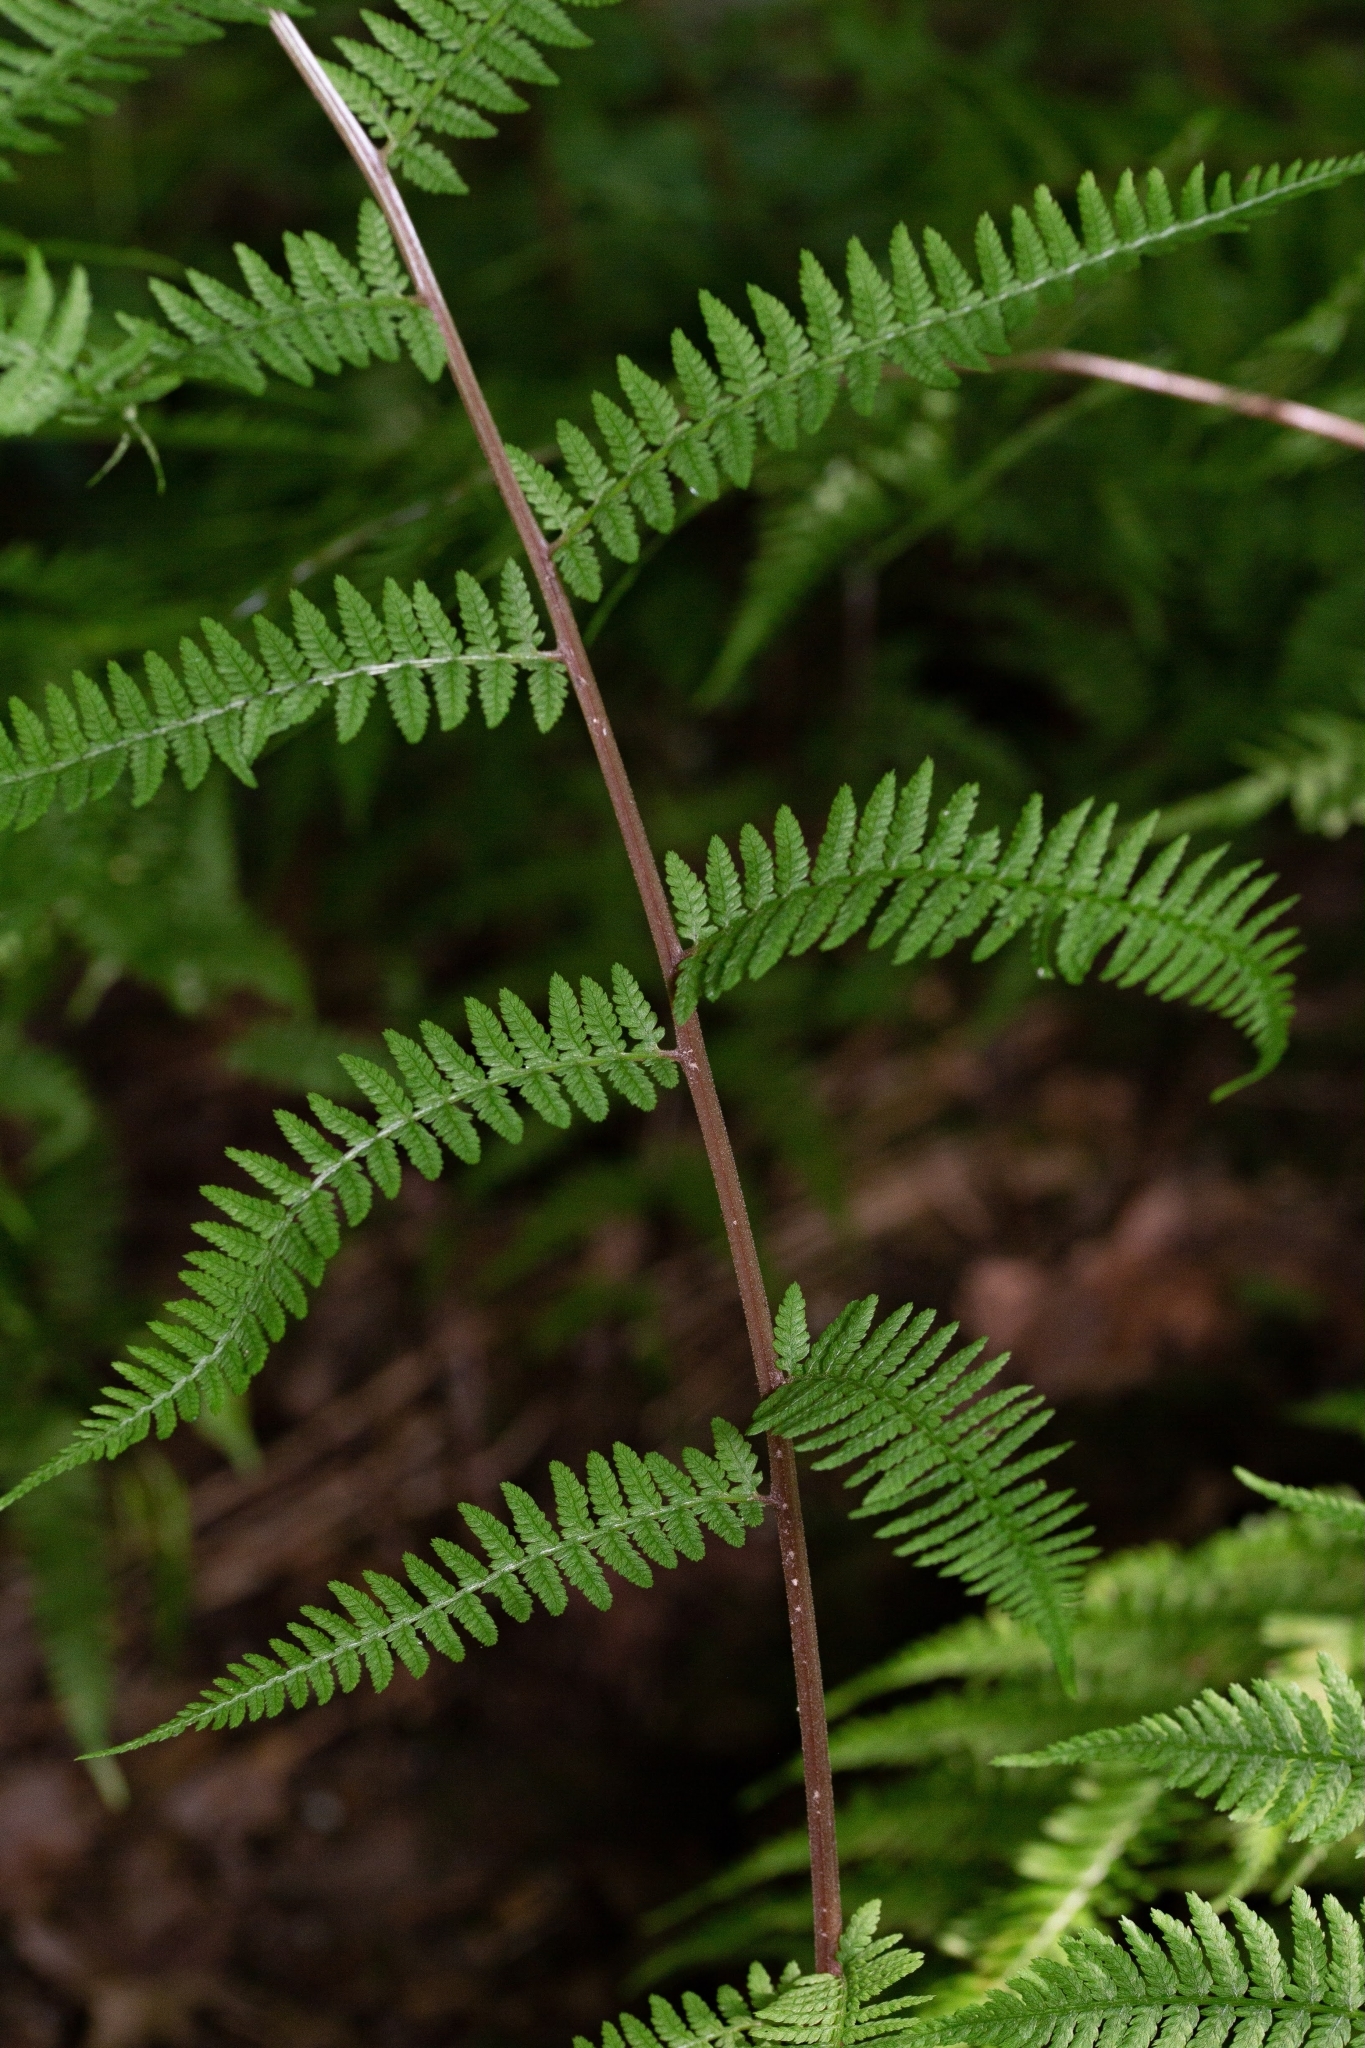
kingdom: Plantae
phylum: Tracheophyta
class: Polypodiopsida
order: Polypodiales
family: Athyriaceae
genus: Athyrium
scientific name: Athyrium asplenioides
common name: Southern lady fern
